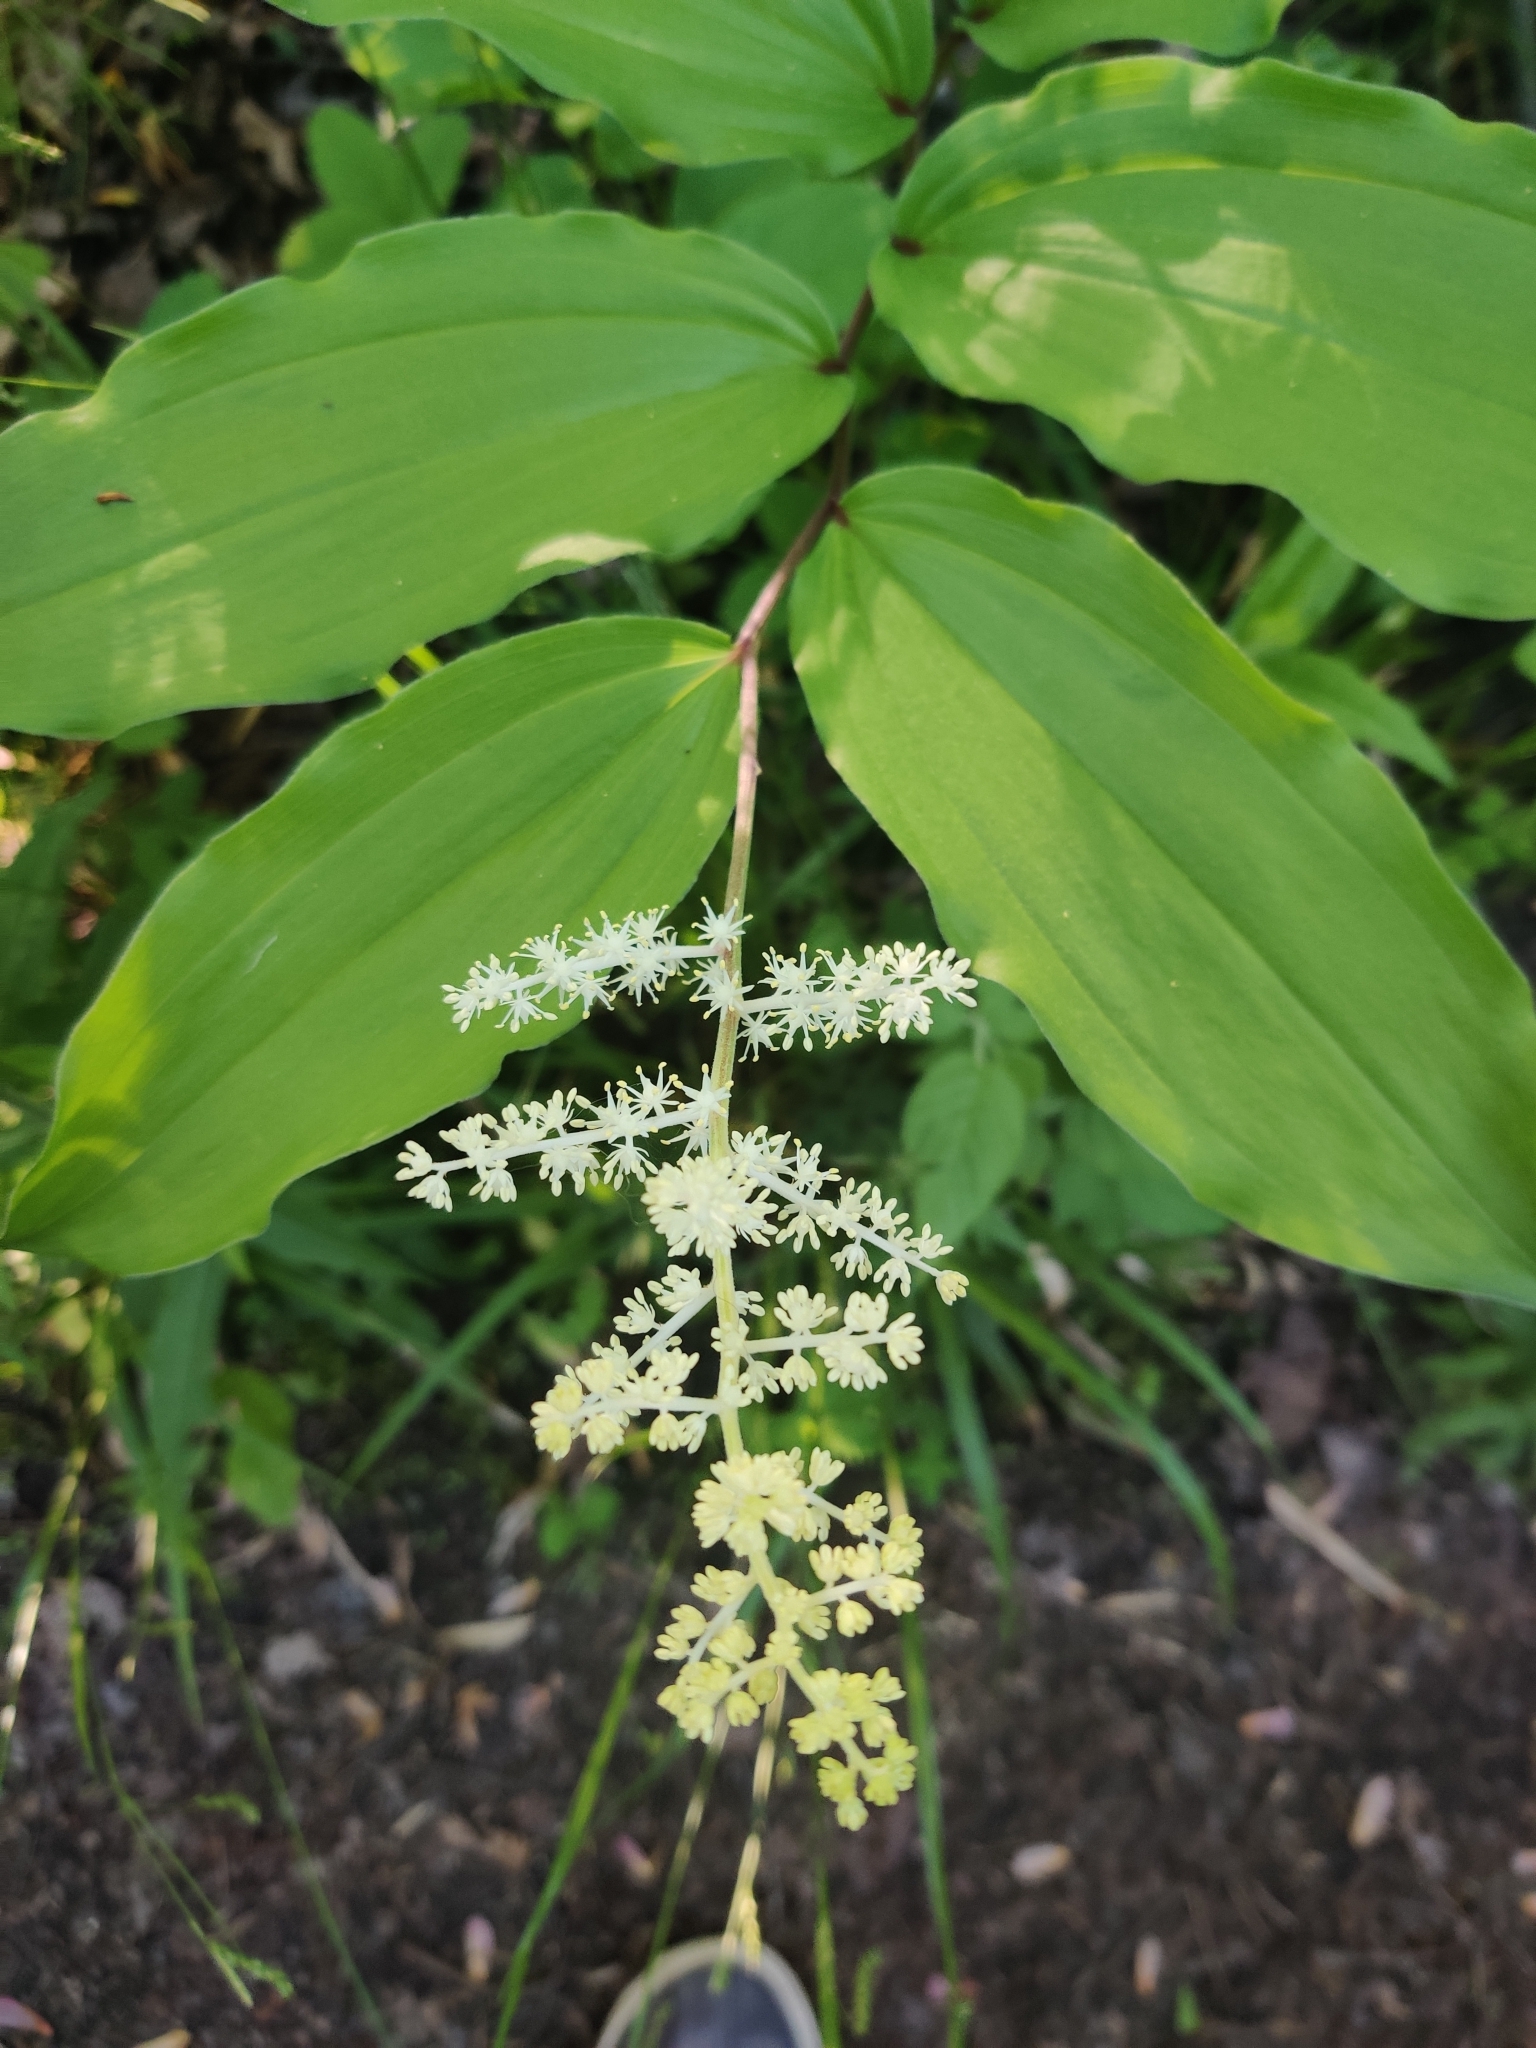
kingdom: Plantae
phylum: Tracheophyta
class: Liliopsida
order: Asparagales
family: Asparagaceae
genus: Maianthemum
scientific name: Maianthemum racemosum
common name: False spikenard
